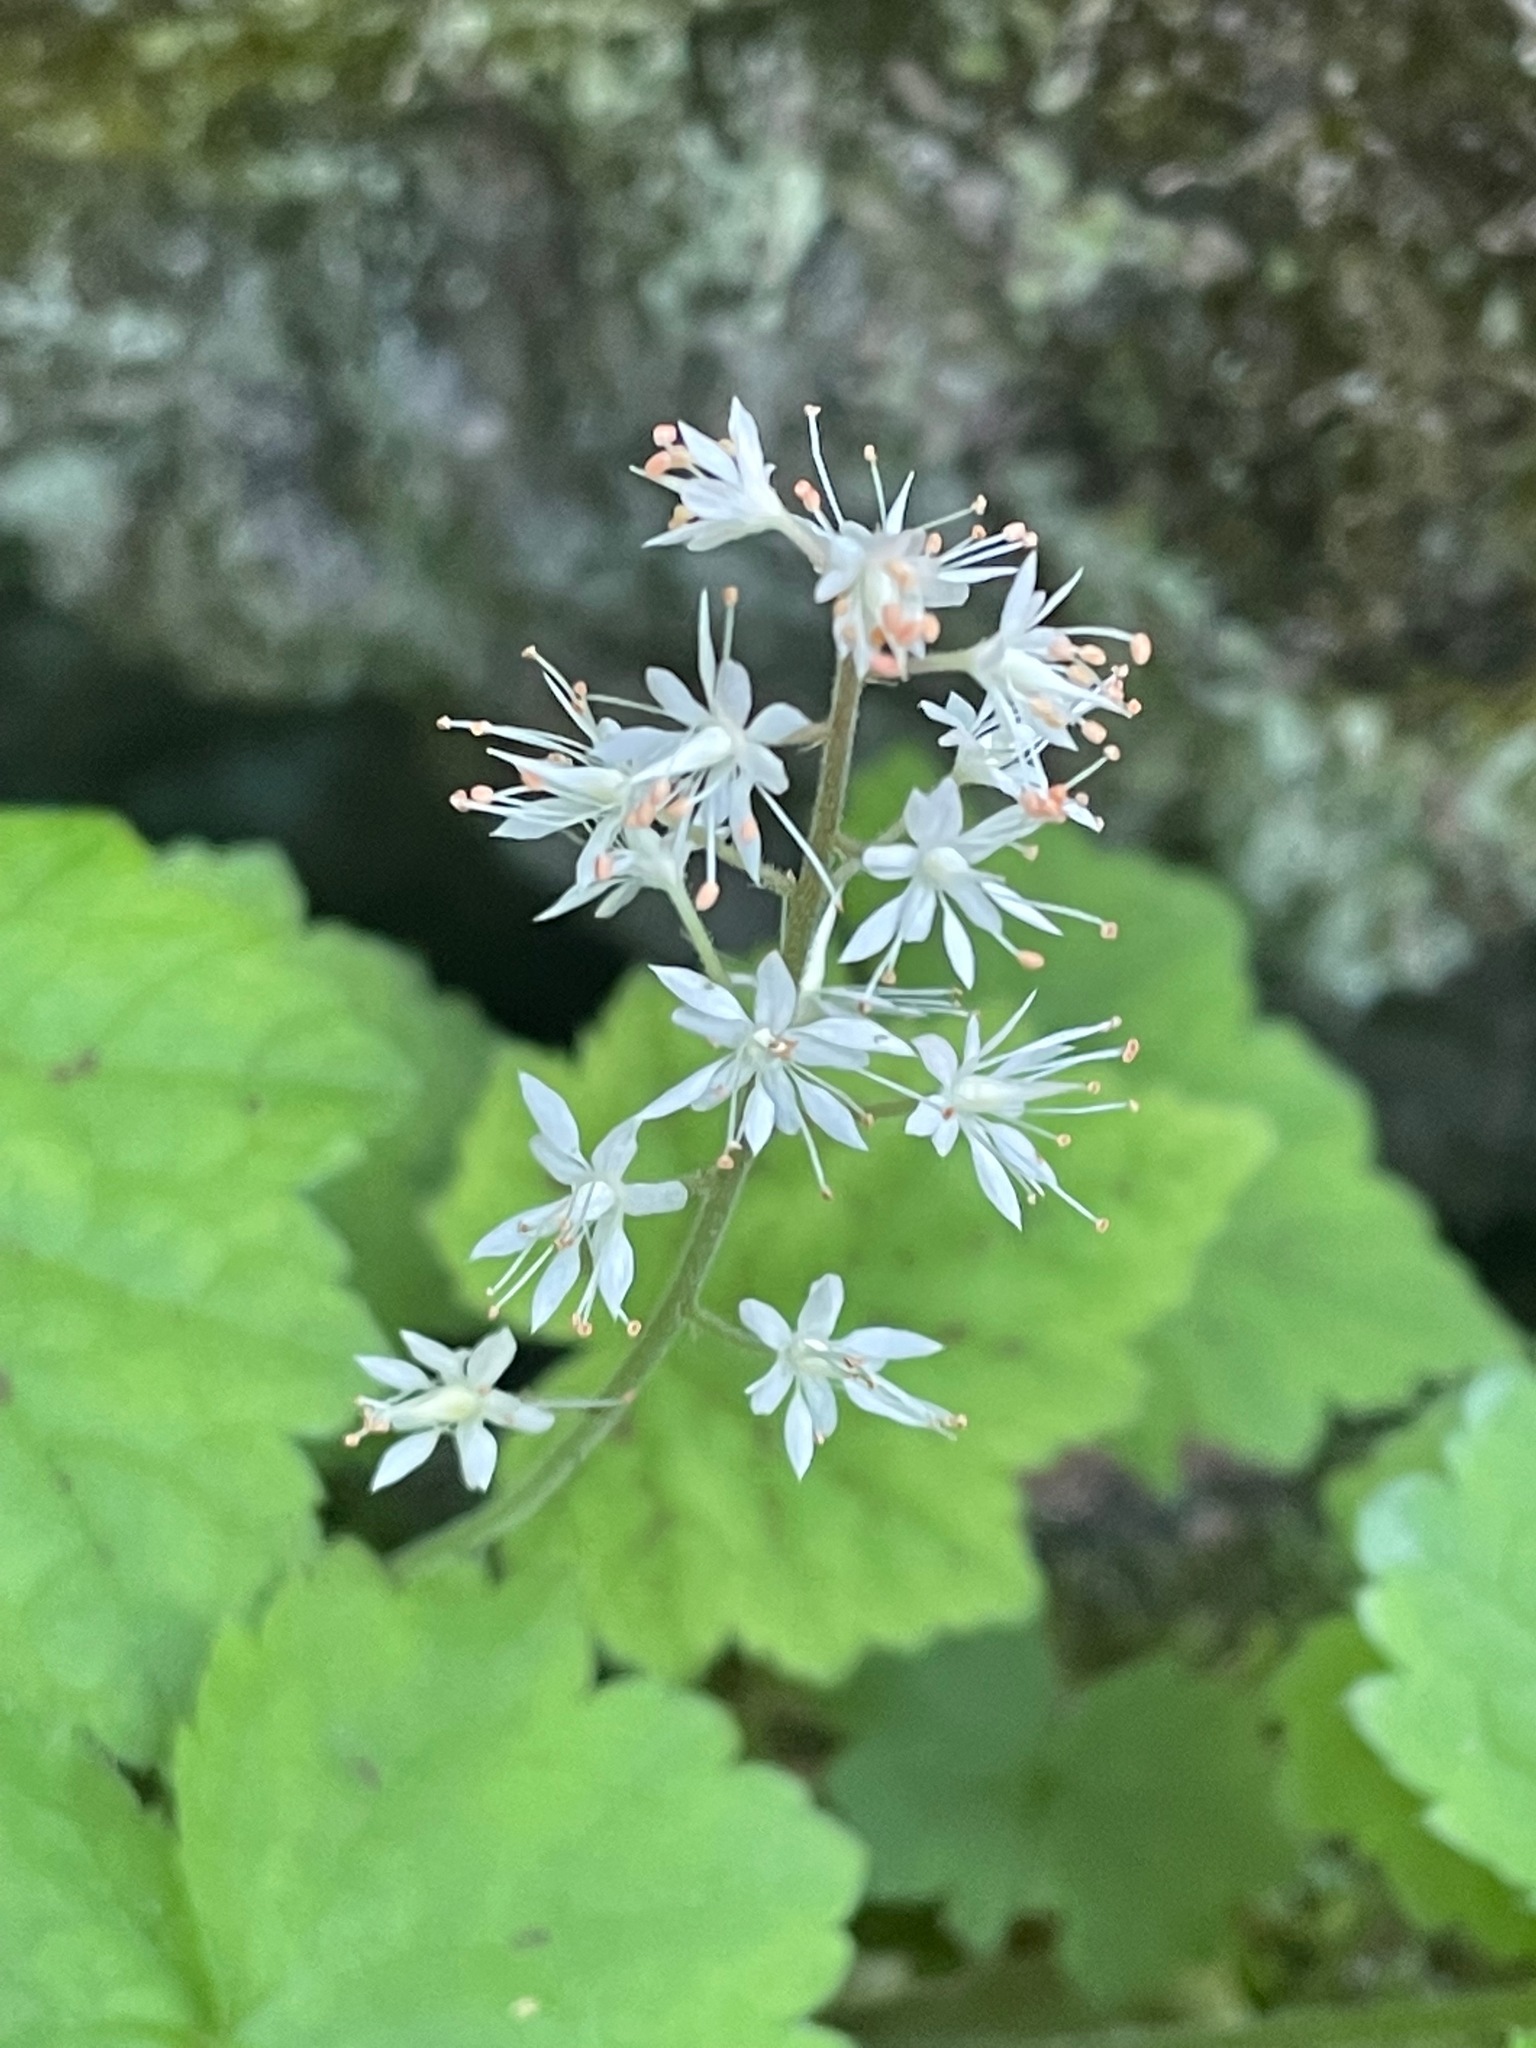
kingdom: Plantae
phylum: Tracheophyta
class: Magnoliopsida
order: Saxifragales
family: Saxifragaceae
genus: Tiarella
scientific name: Tiarella stolonifera
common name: Stoloniferous foamflower
